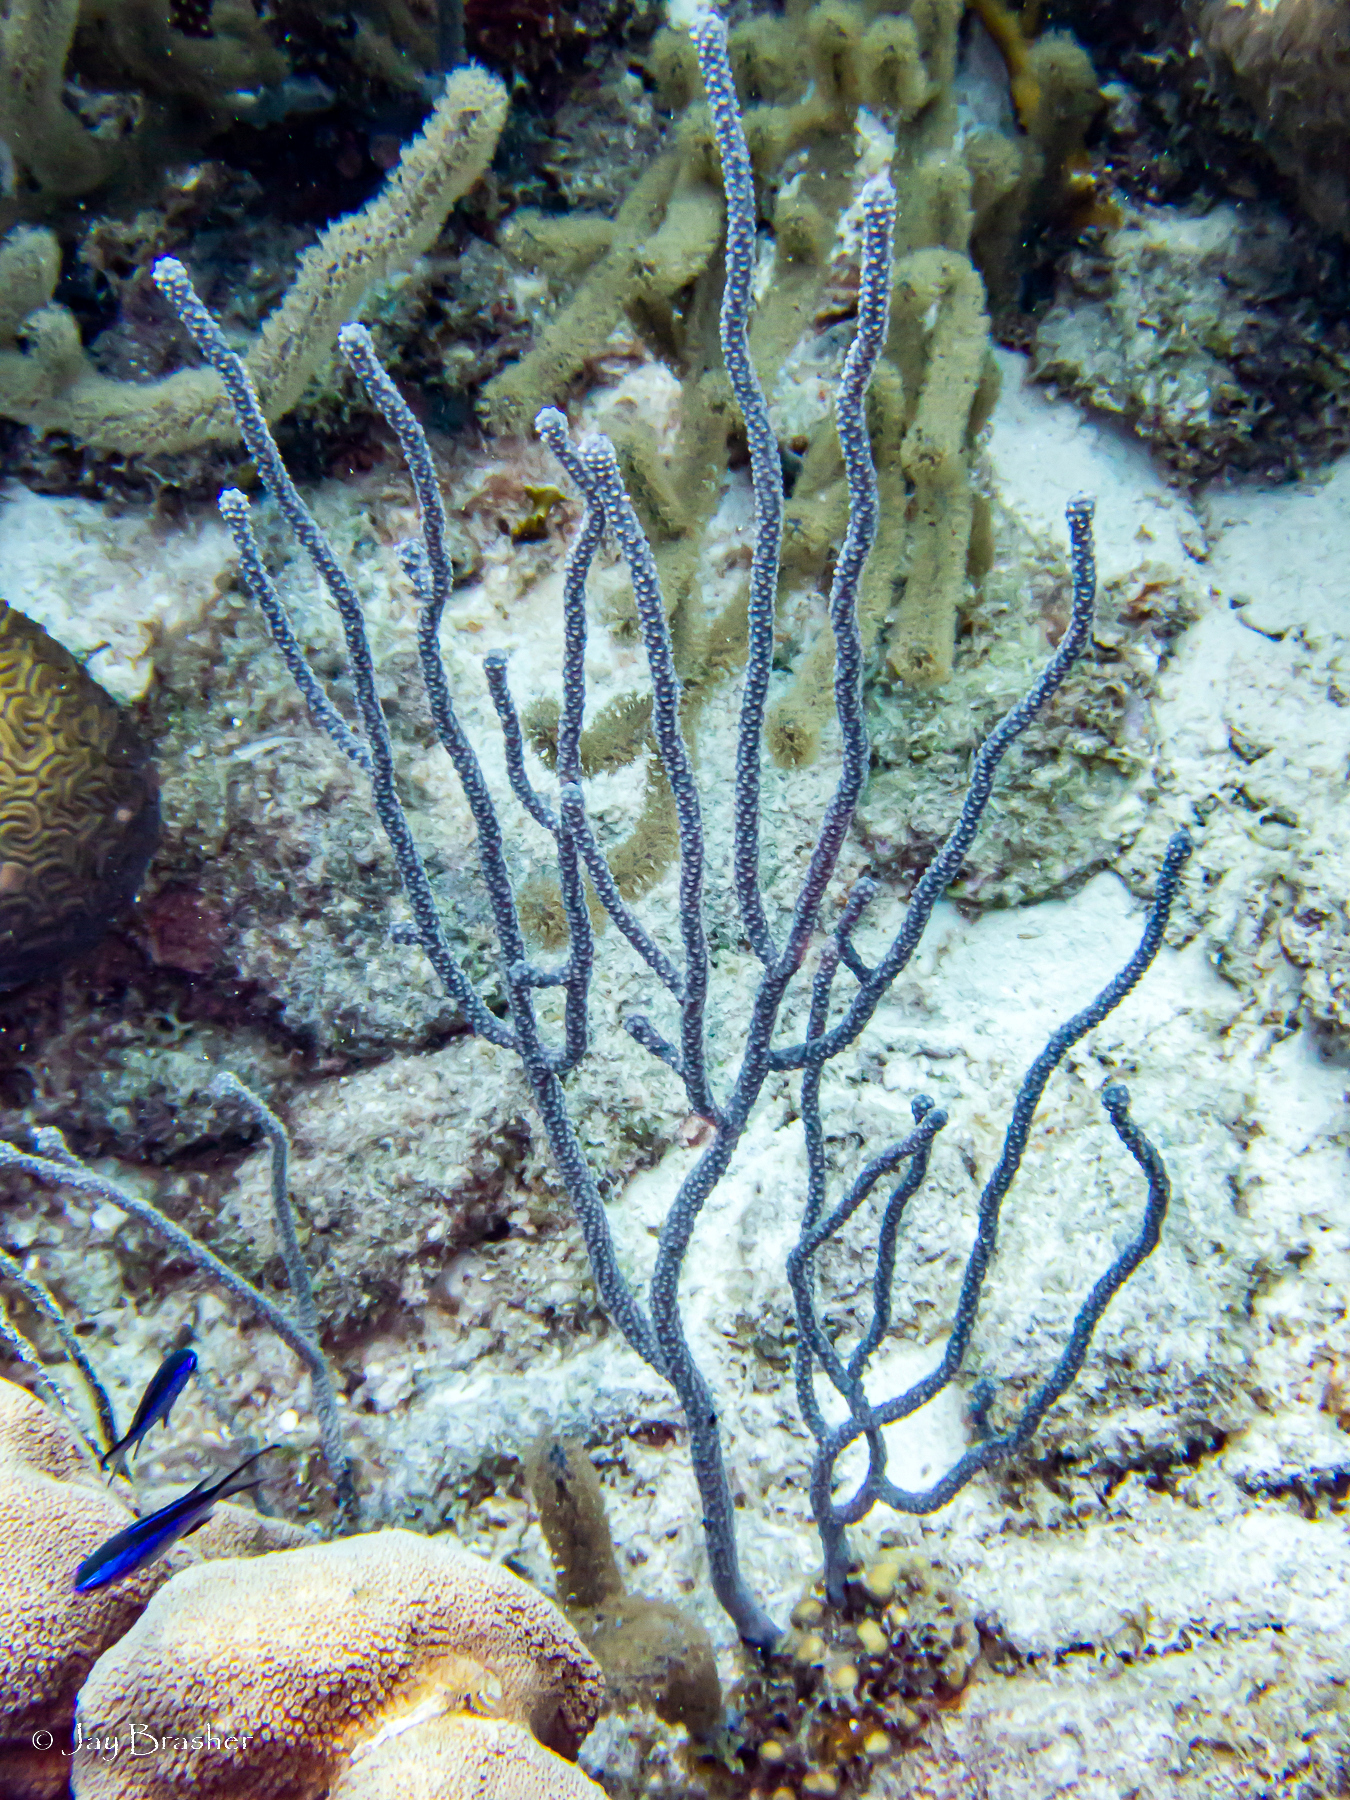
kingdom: Animalia
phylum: Chordata
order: Perciformes
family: Pomacentridae
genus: Chromis
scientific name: Chromis cyanea
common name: Blue chromis
